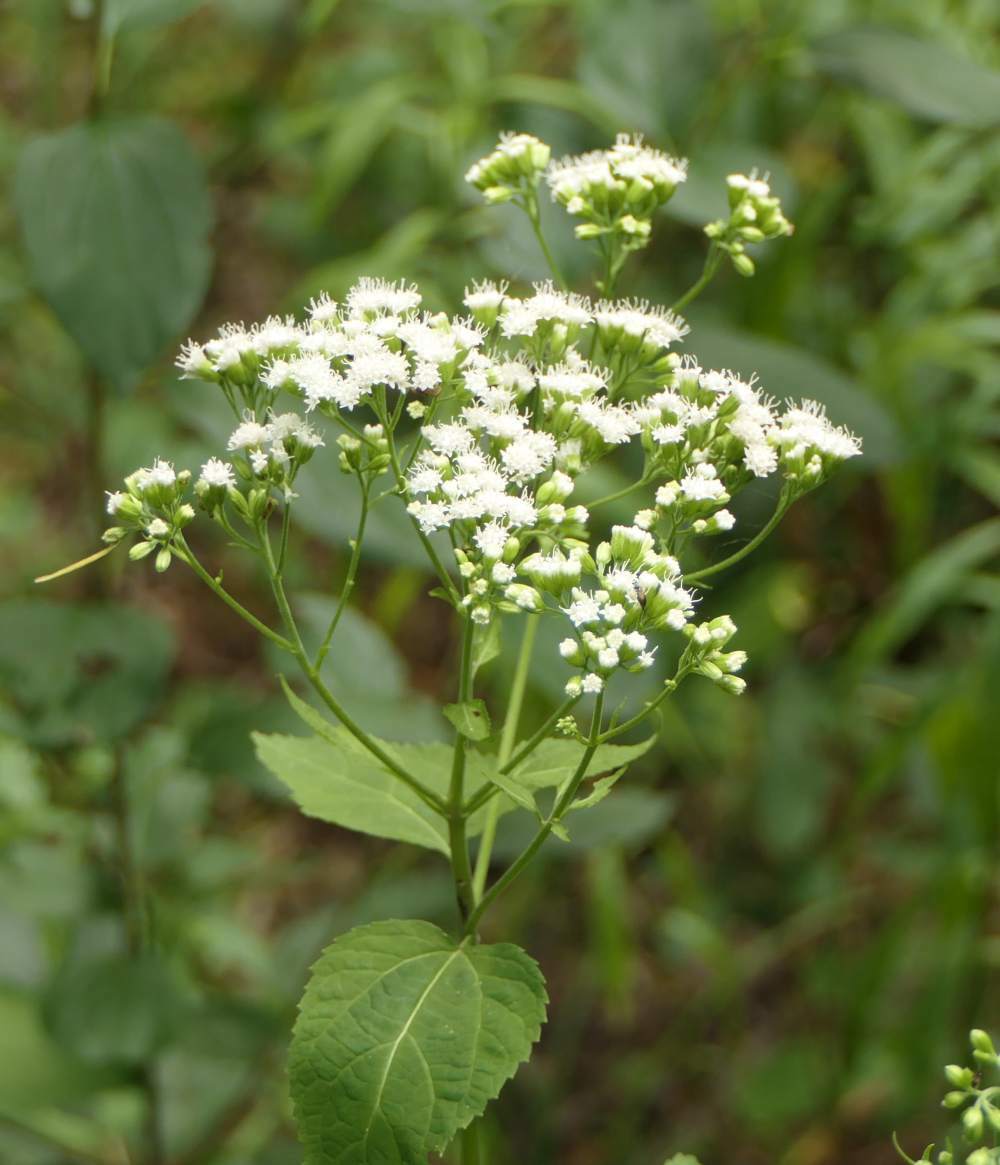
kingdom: Plantae
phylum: Tracheophyta
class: Magnoliopsida
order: Asterales
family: Asteraceae
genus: Ageratina
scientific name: Ageratina altissima
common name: White snakeroot
